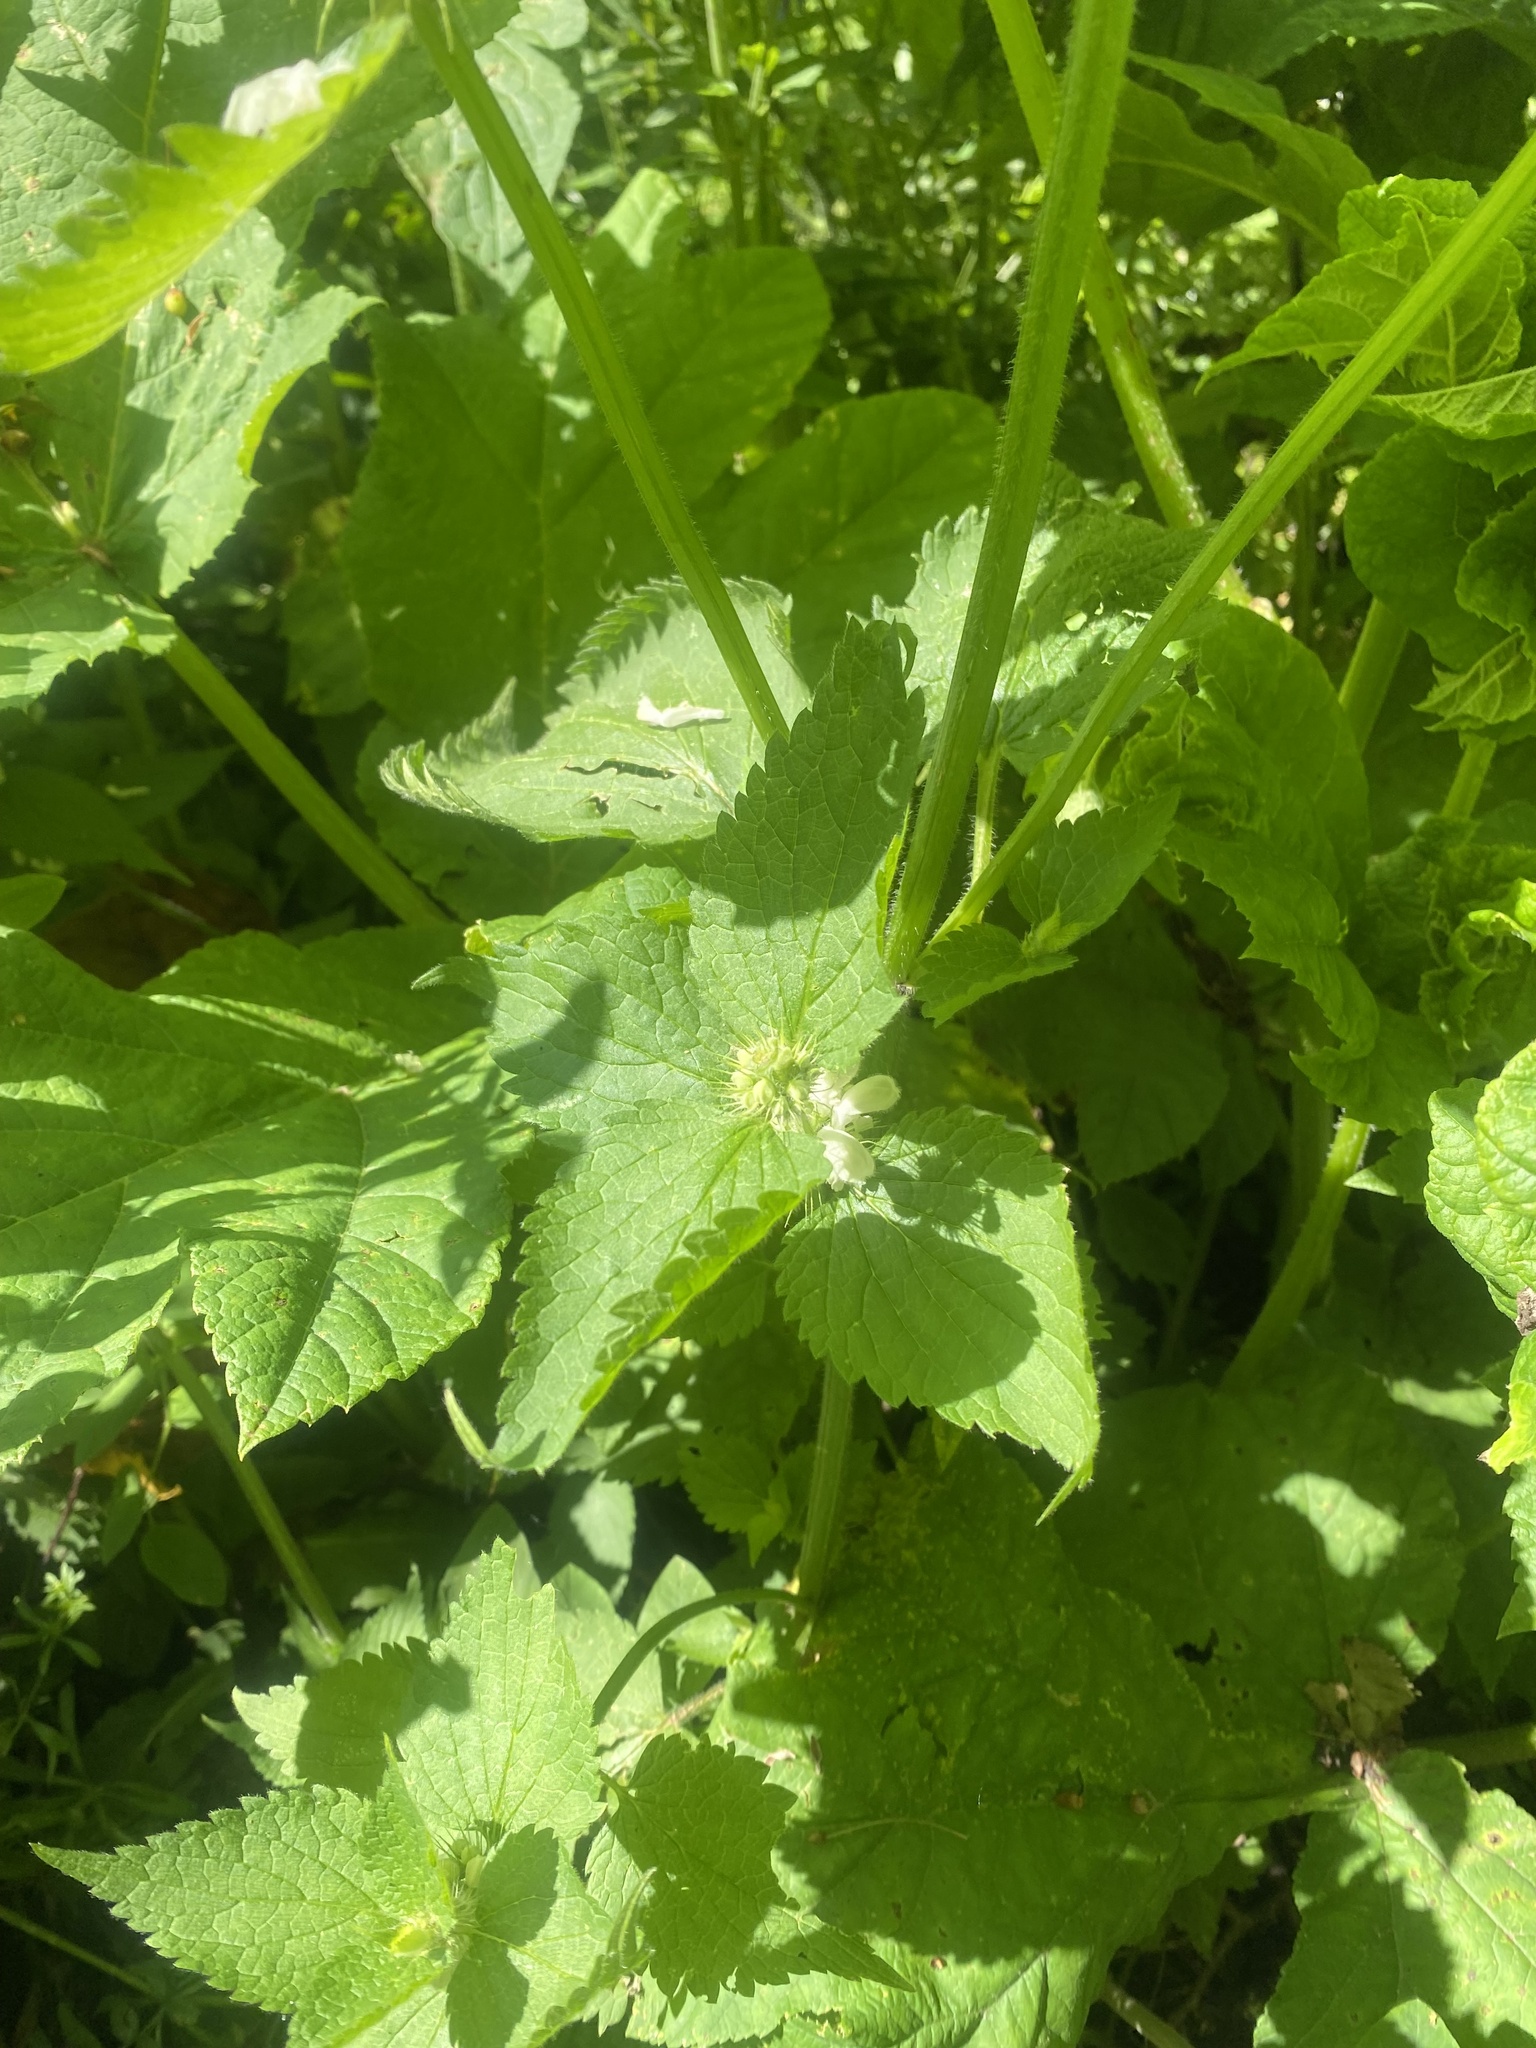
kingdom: Plantae
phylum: Tracheophyta
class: Magnoliopsida
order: Lamiales
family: Lamiaceae
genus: Lamium
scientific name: Lamium album
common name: White dead-nettle
